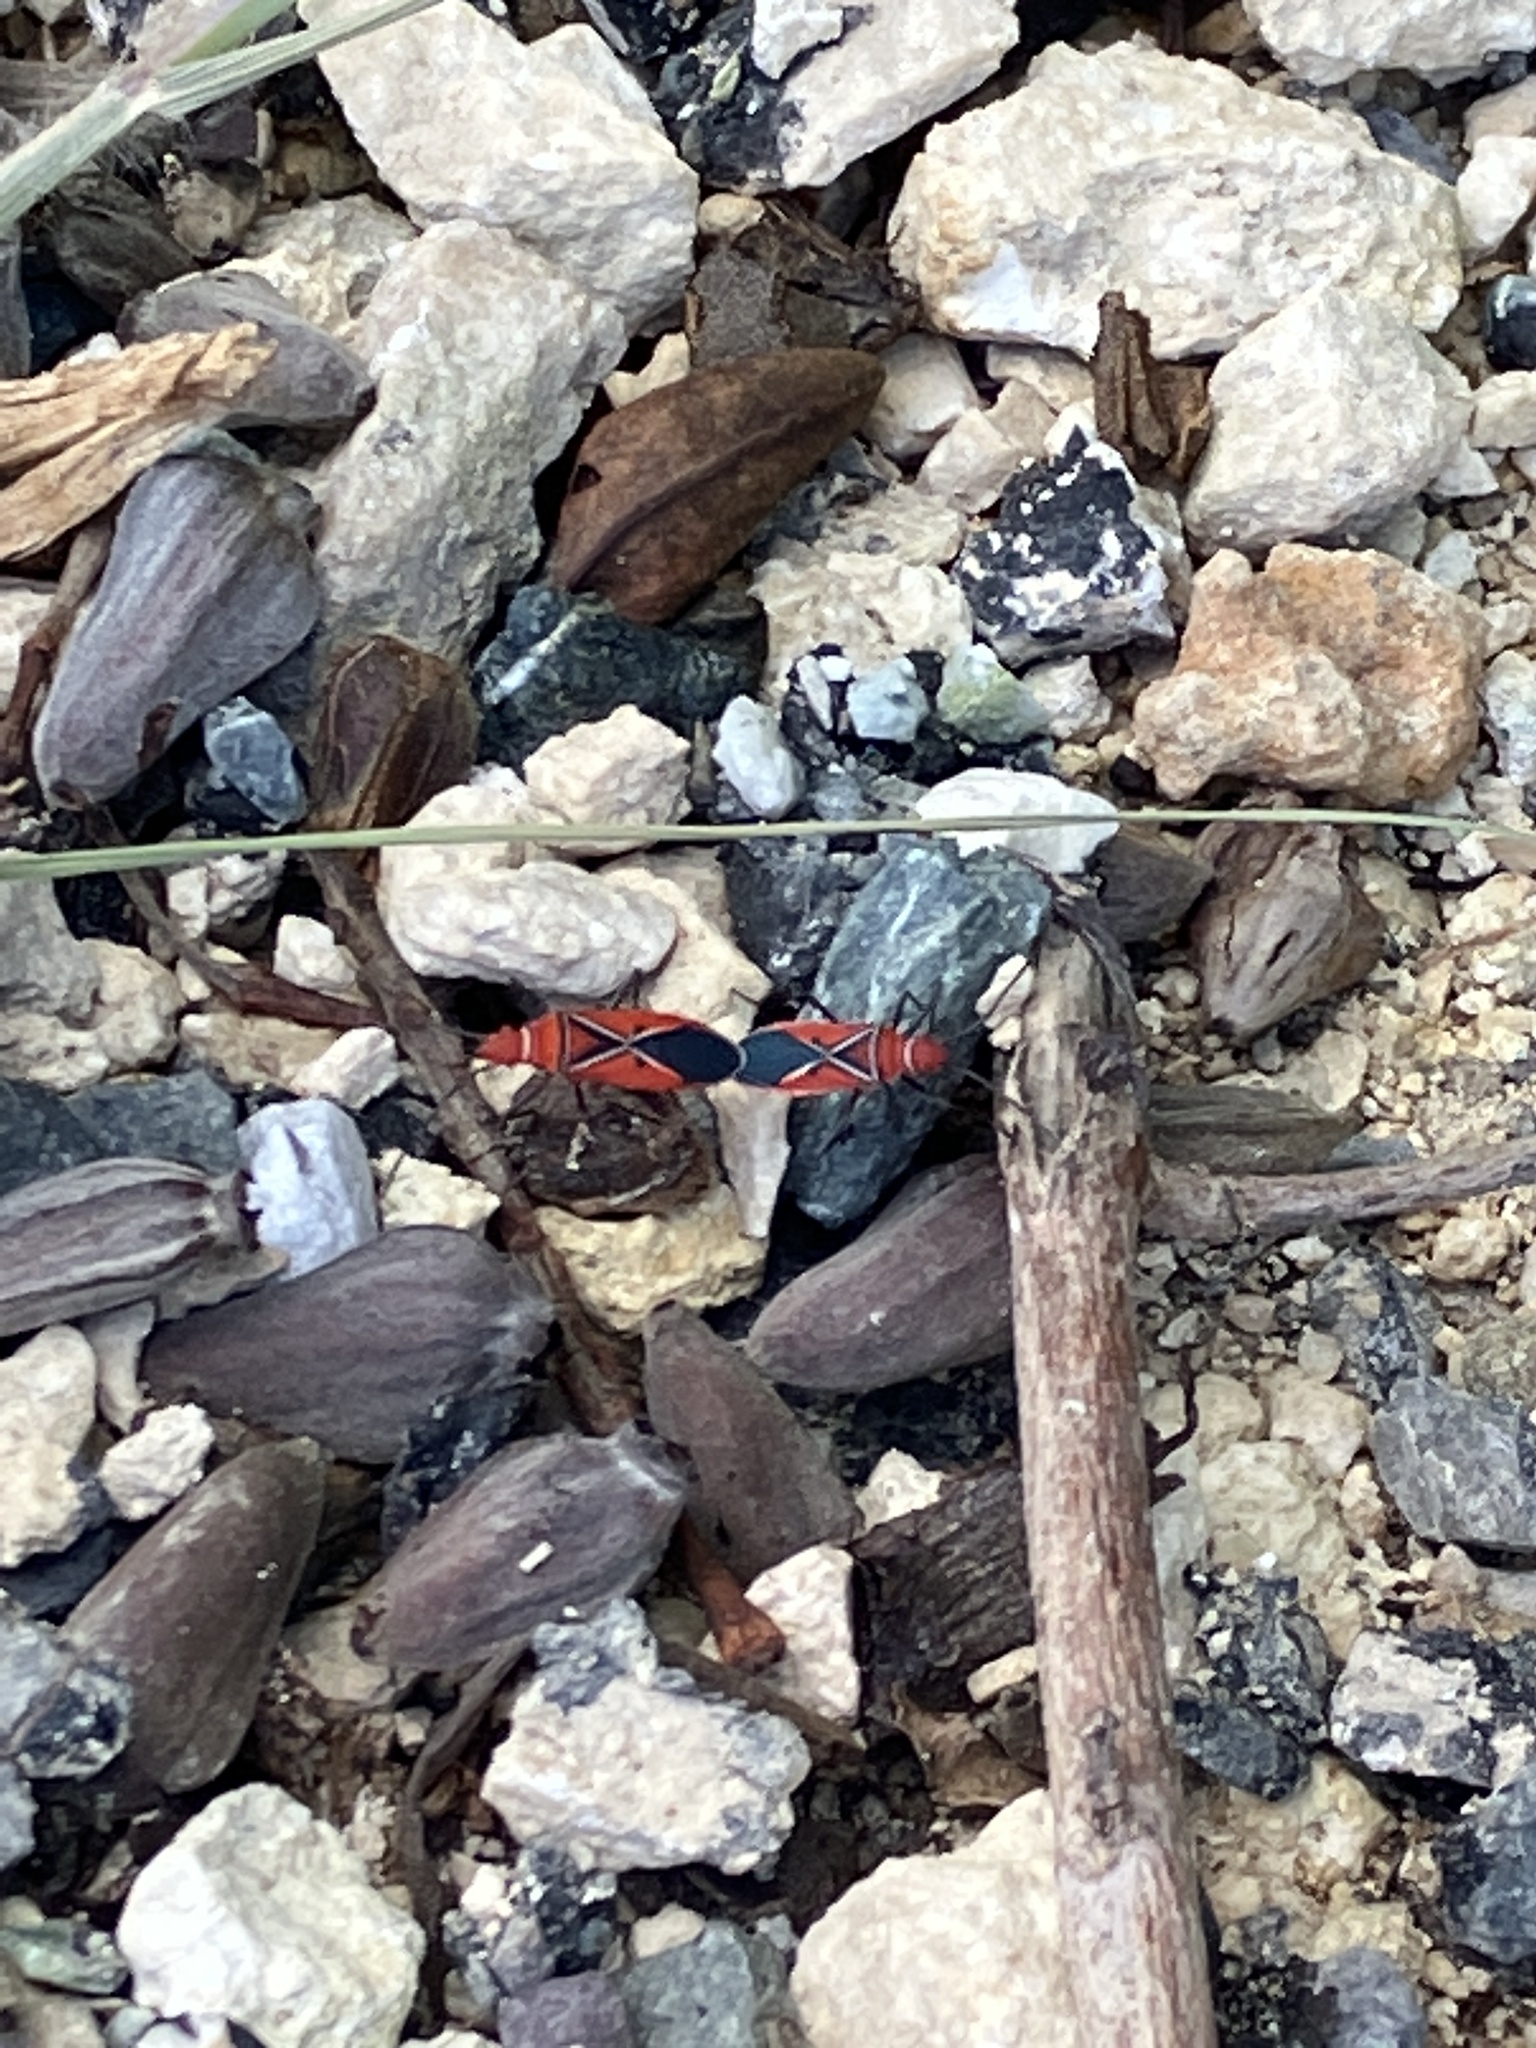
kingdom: Animalia
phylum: Arthropoda
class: Insecta
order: Hemiptera
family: Pyrrhocoridae
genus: Dysdercus
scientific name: Dysdercus andreae
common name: St. andrew's cotton stainer
